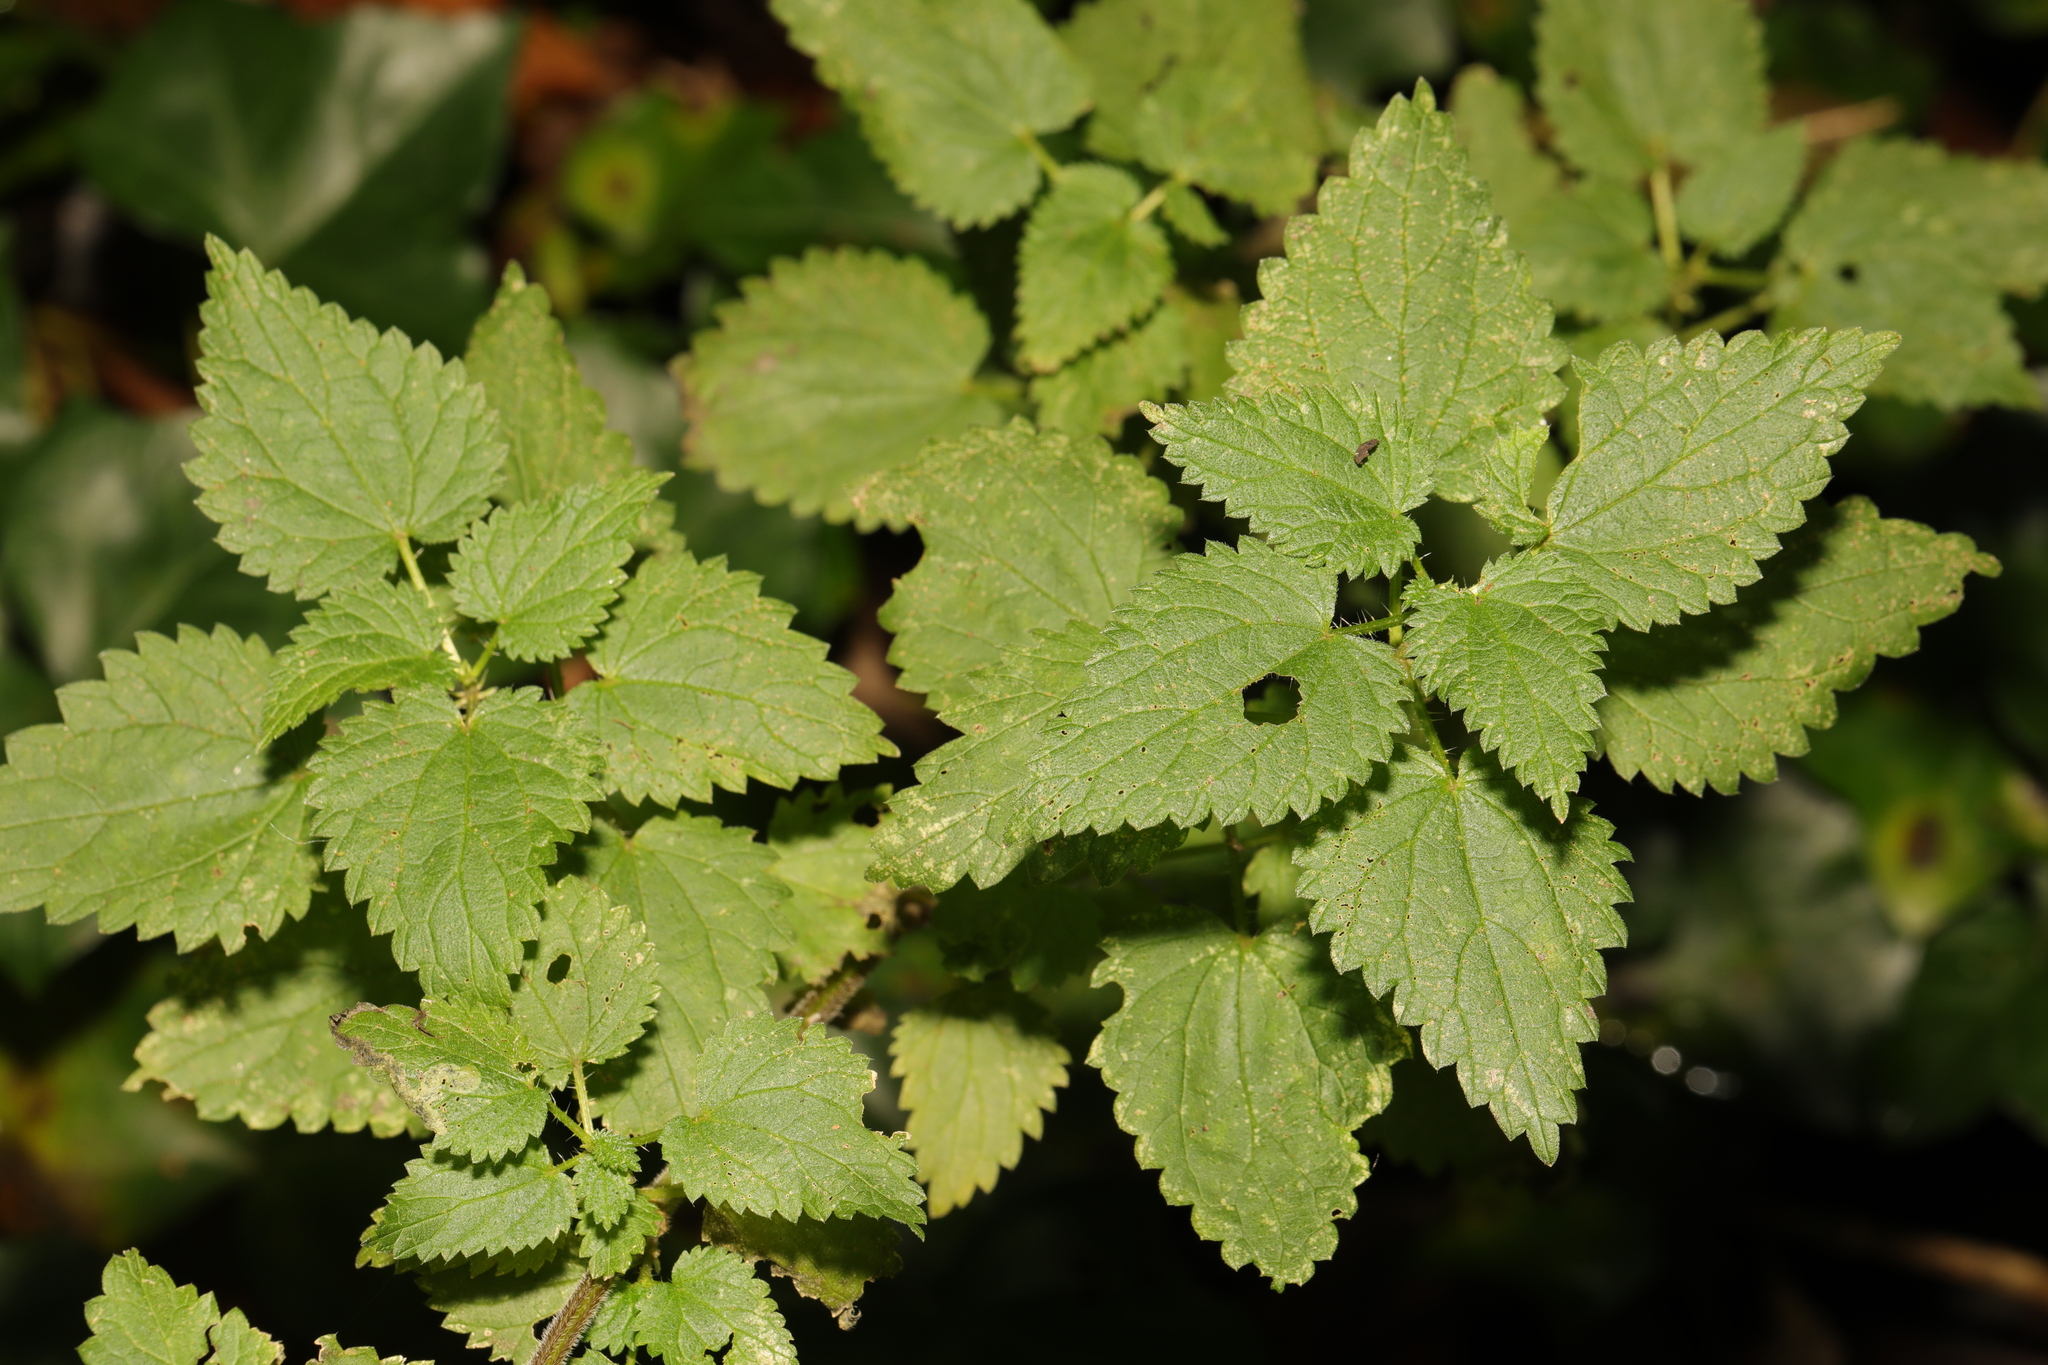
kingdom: Plantae
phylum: Tracheophyta
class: Magnoliopsida
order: Rosales
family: Urticaceae
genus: Urtica
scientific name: Urtica dioica
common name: Common nettle
